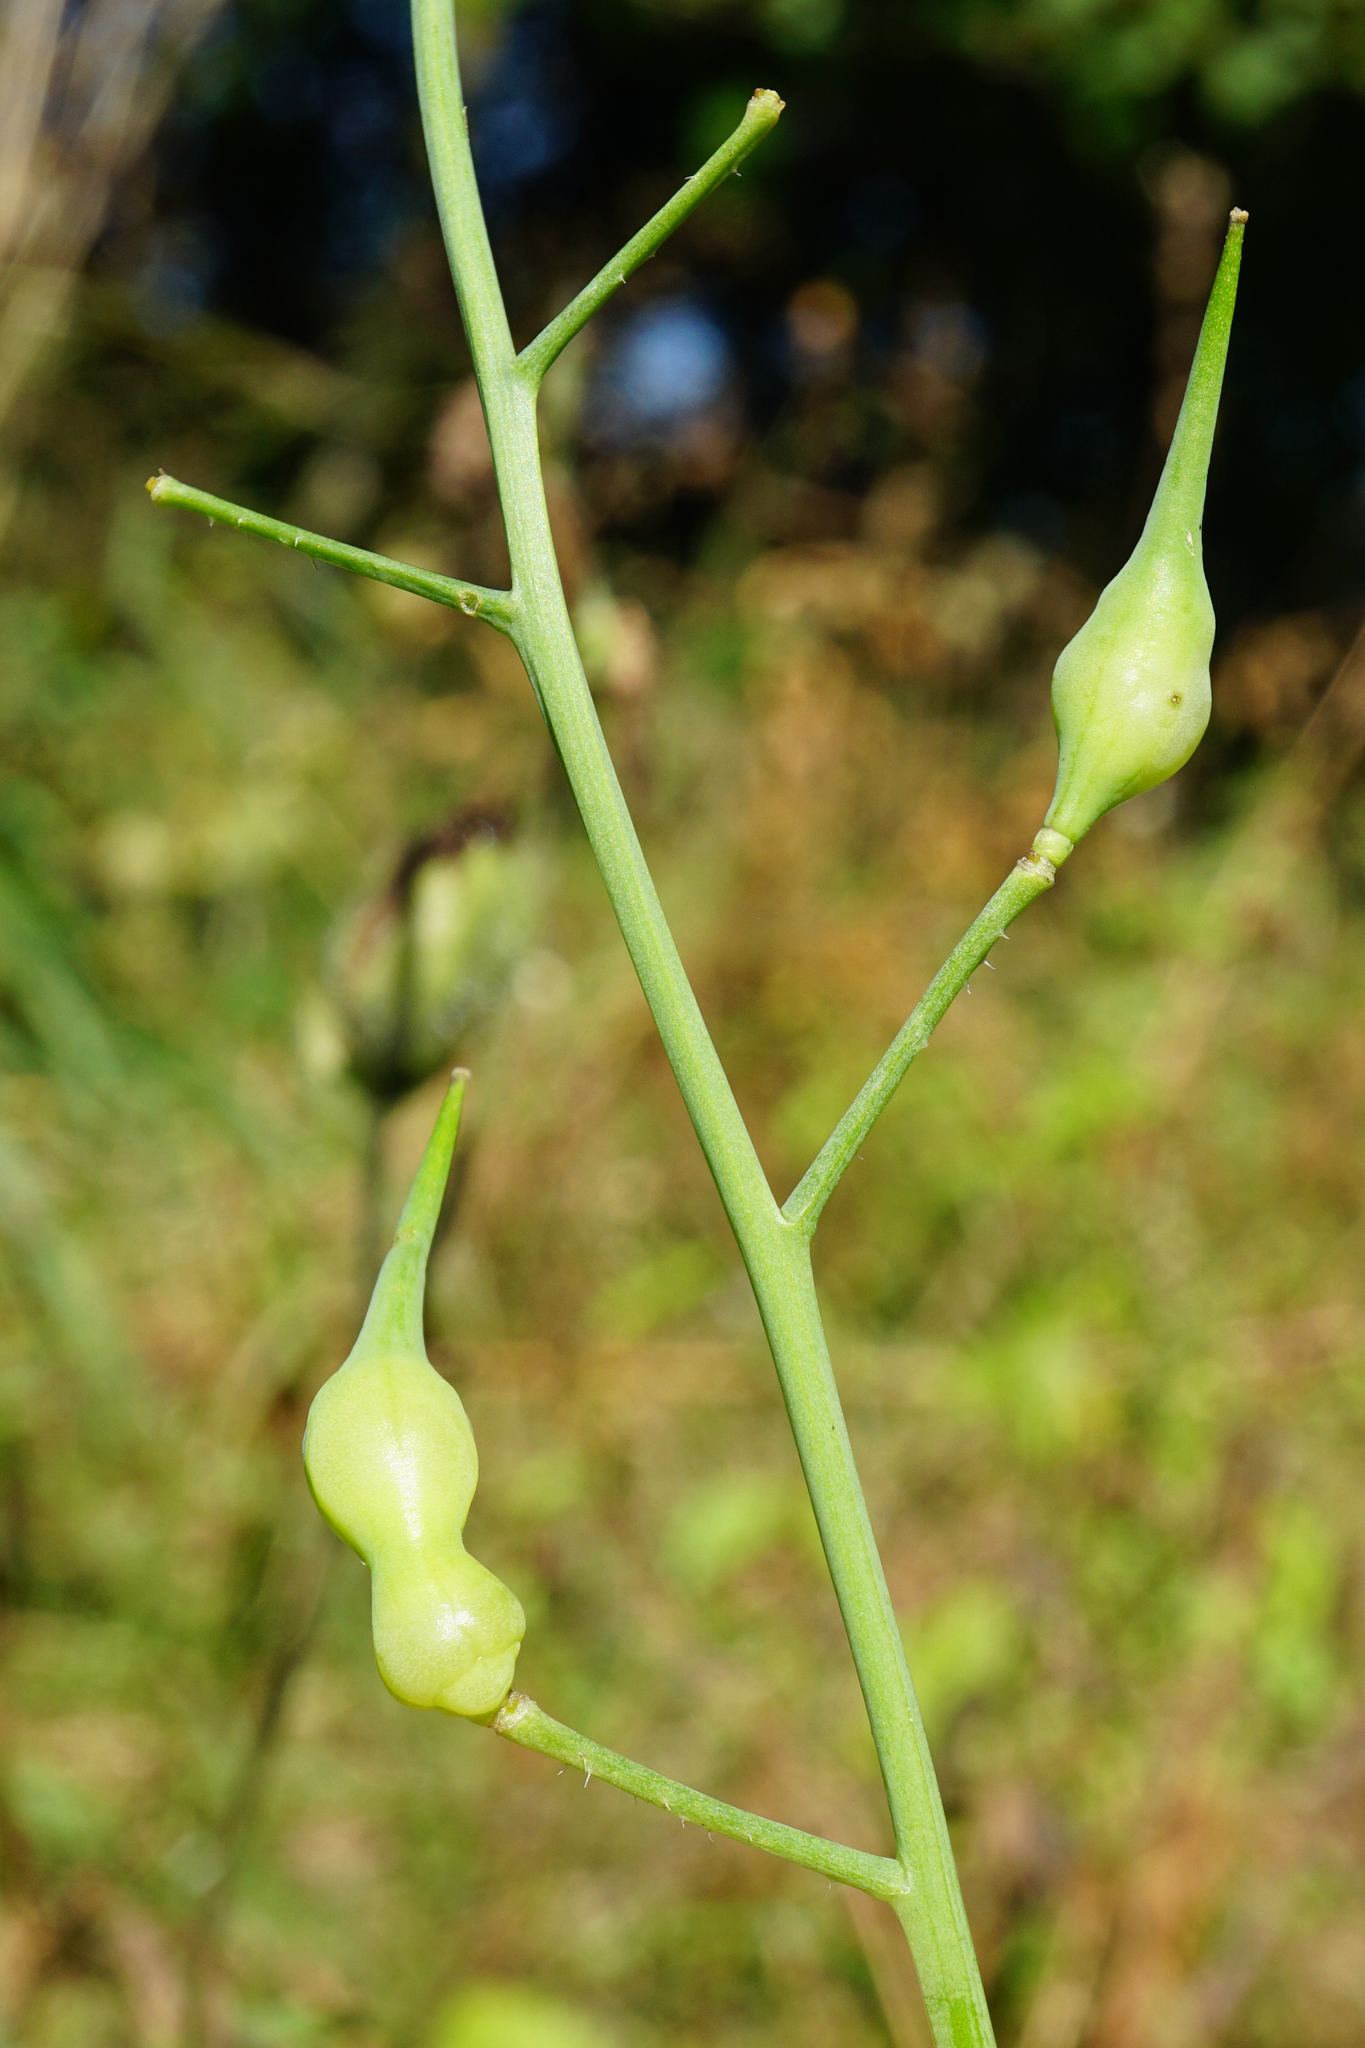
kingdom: Plantae
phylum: Tracheophyta
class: Magnoliopsida
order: Brassicales
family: Brassicaceae
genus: Raphanus
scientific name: Raphanus sativus
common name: Cultivated radish
